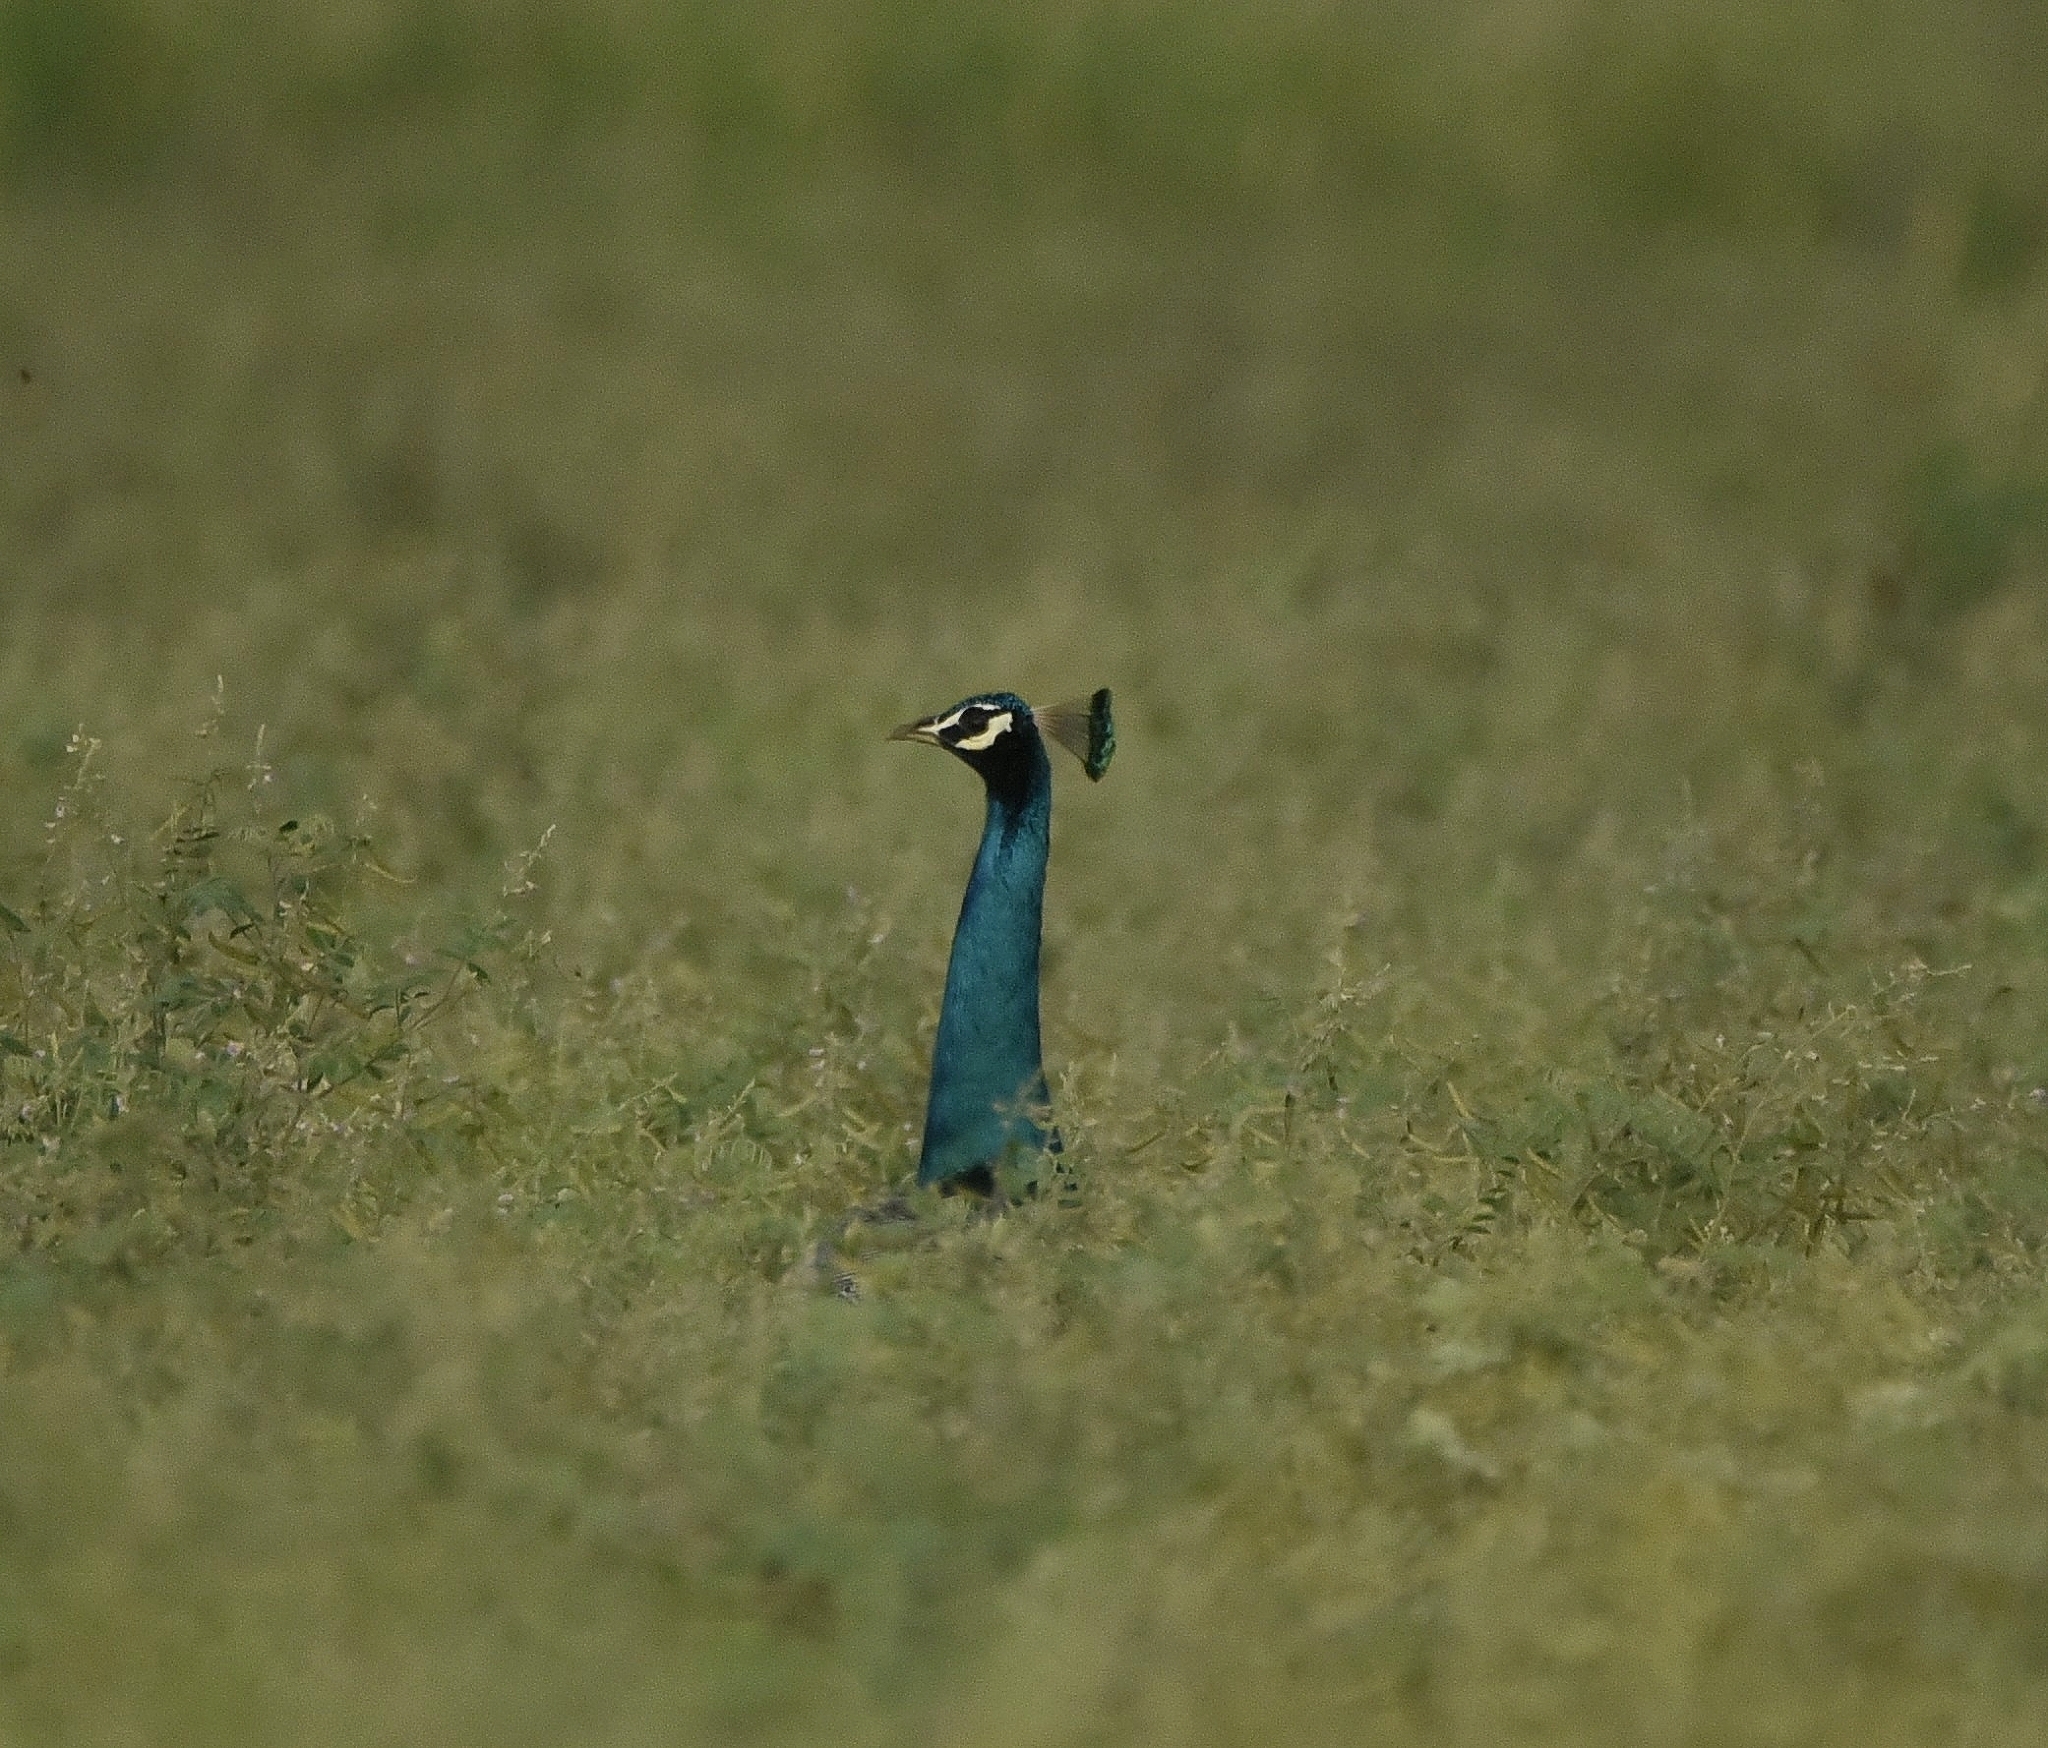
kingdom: Animalia
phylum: Chordata
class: Aves
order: Galliformes
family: Phasianidae
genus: Pavo
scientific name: Pavo cristatus
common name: Indian peafowl
